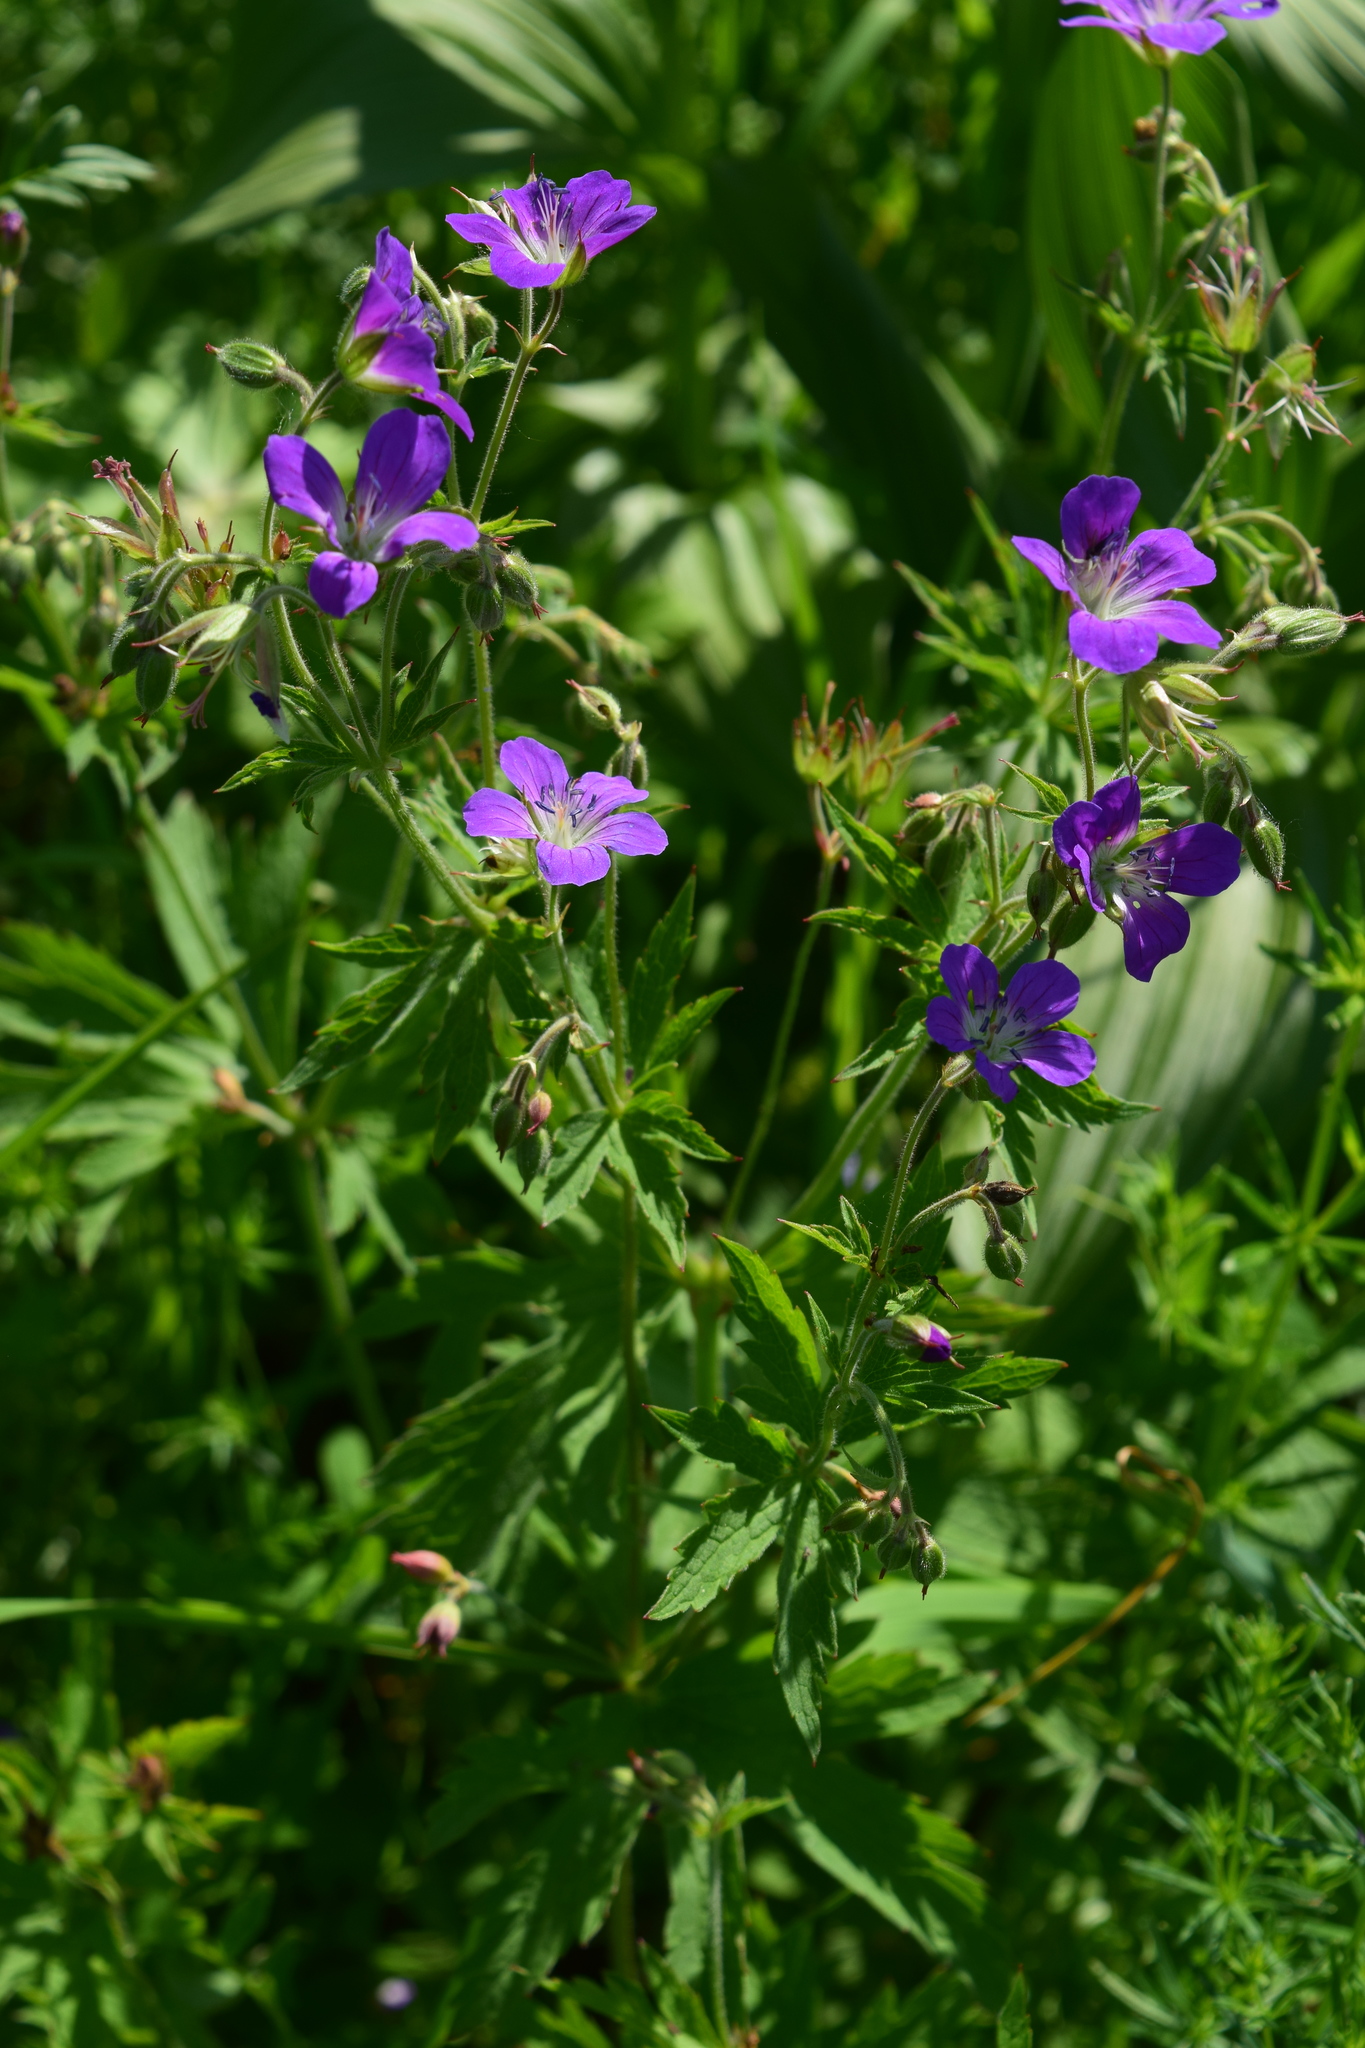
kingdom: Plantae
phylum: Tracheophyta
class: Magnoliopsida
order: Geraniales
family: Geraniaceae
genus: Geranium
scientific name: Geranium sylvaticum
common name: Wood crane's-bill
